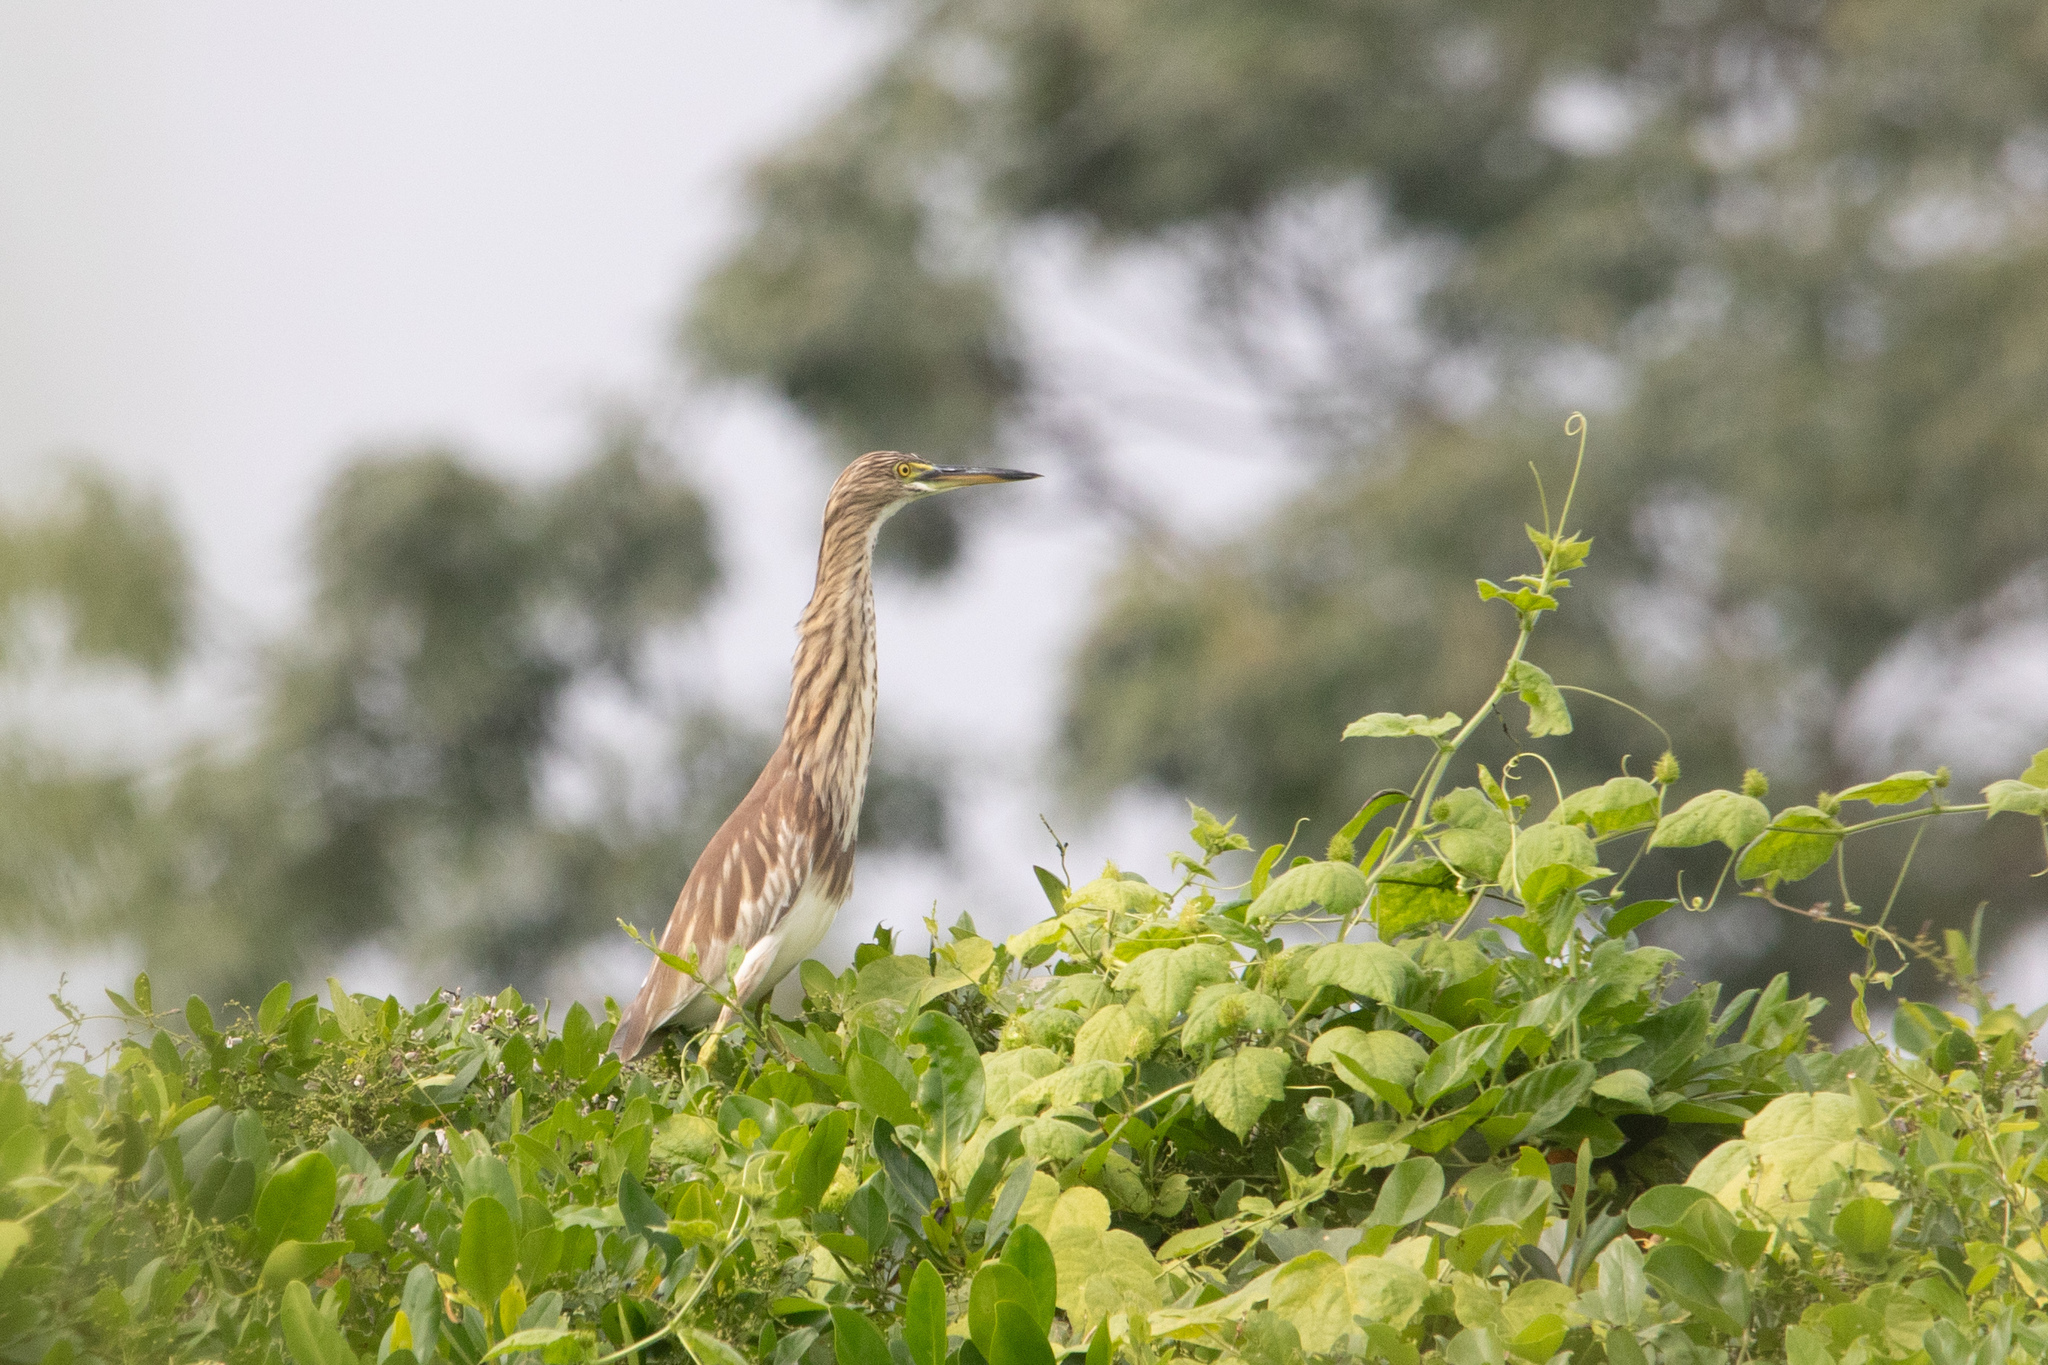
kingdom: Animalia
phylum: Chordata
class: Aves
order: Pelecaniformes
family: Ardeidae
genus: Ardeola
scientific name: Ardeola bacchus
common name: Chinese pond heron
